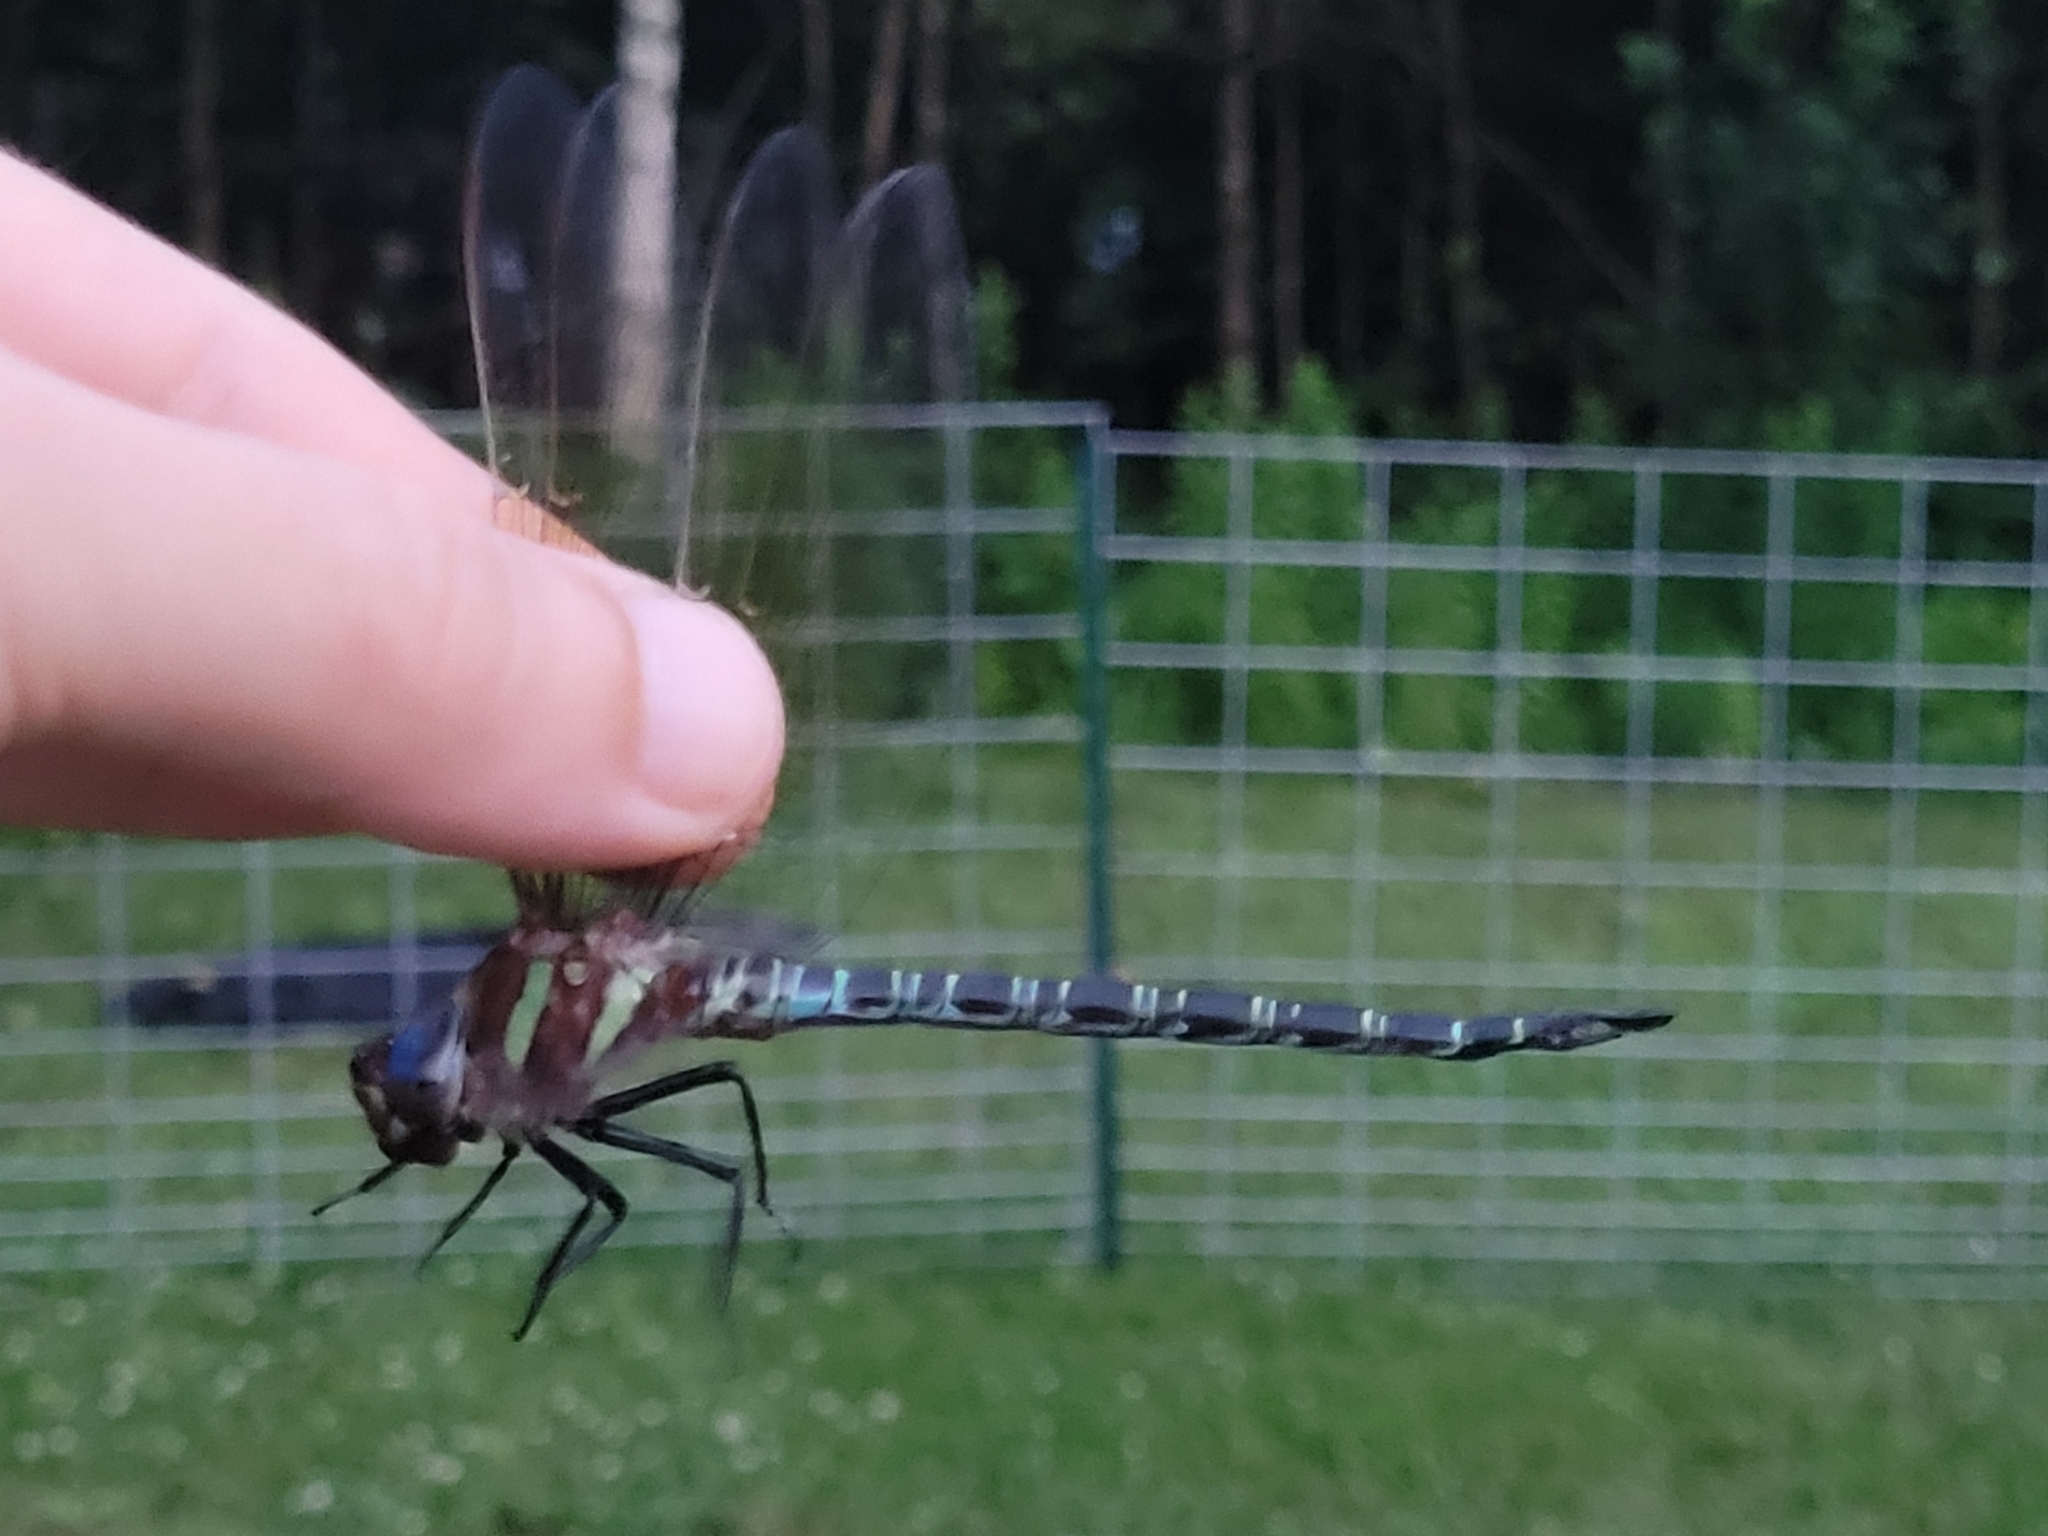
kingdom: Animalia
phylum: Arthropoda
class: Insecta
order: Odonata
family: Aeshnidae
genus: Epiaeschna
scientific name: Epiaeschna heros
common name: Swamp darner
